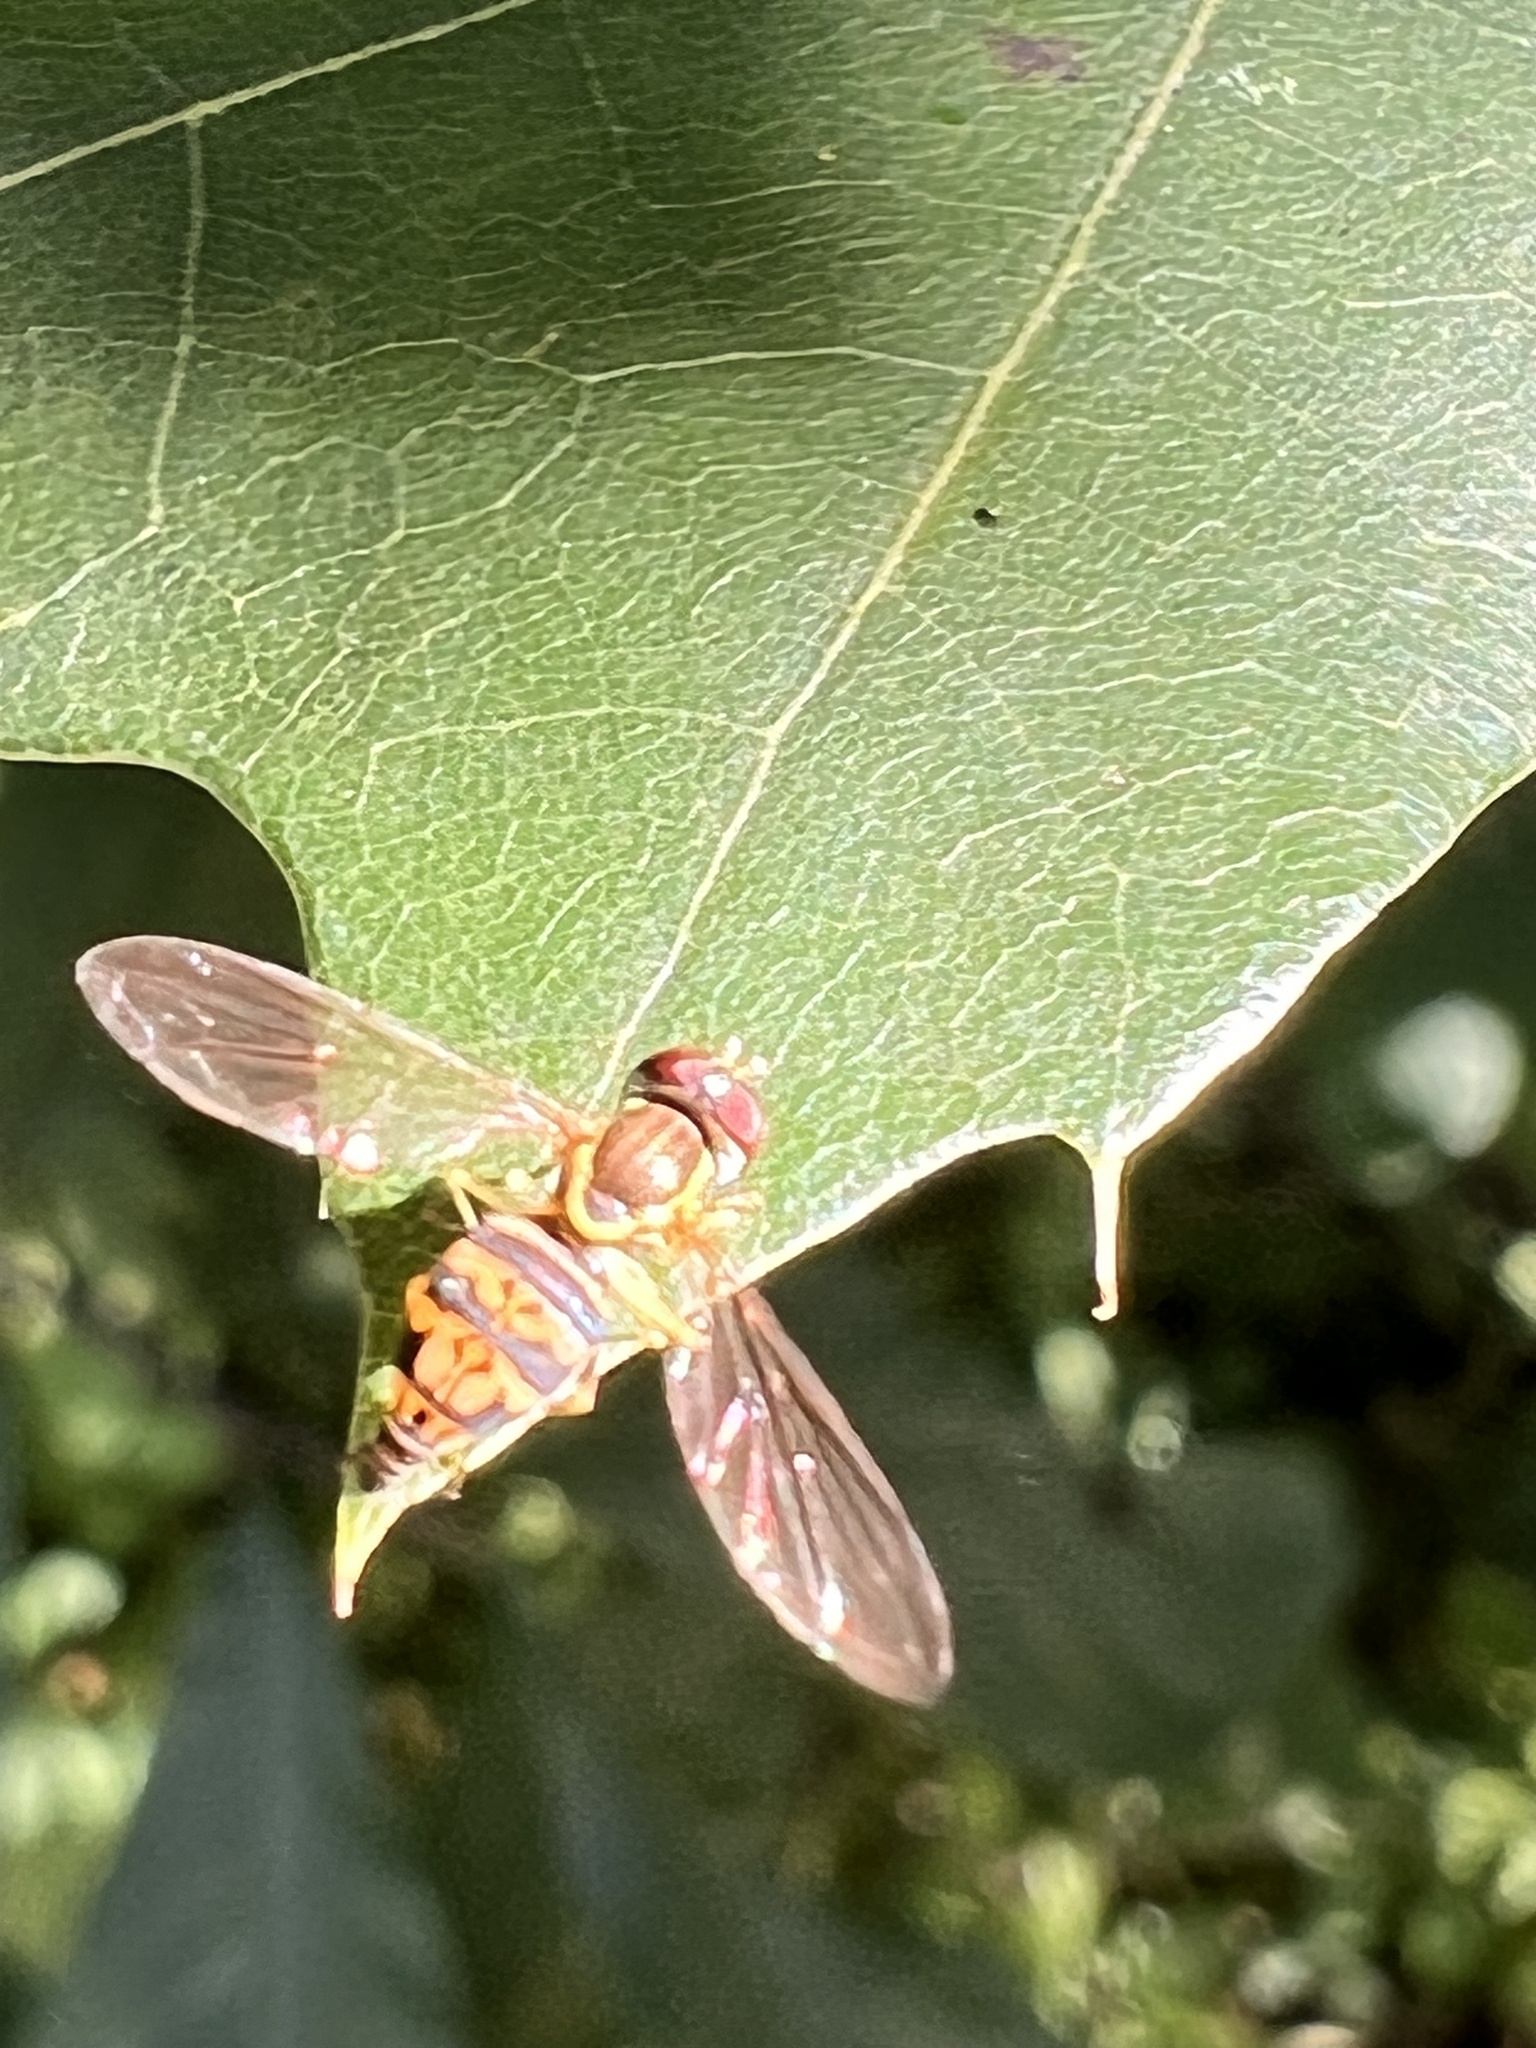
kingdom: Animalia
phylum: Arthropoda
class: Insecta
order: Diptera
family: Syrphidae
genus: Toxomerus
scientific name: Toxomerus geminatus
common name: Eastern calligrapher
